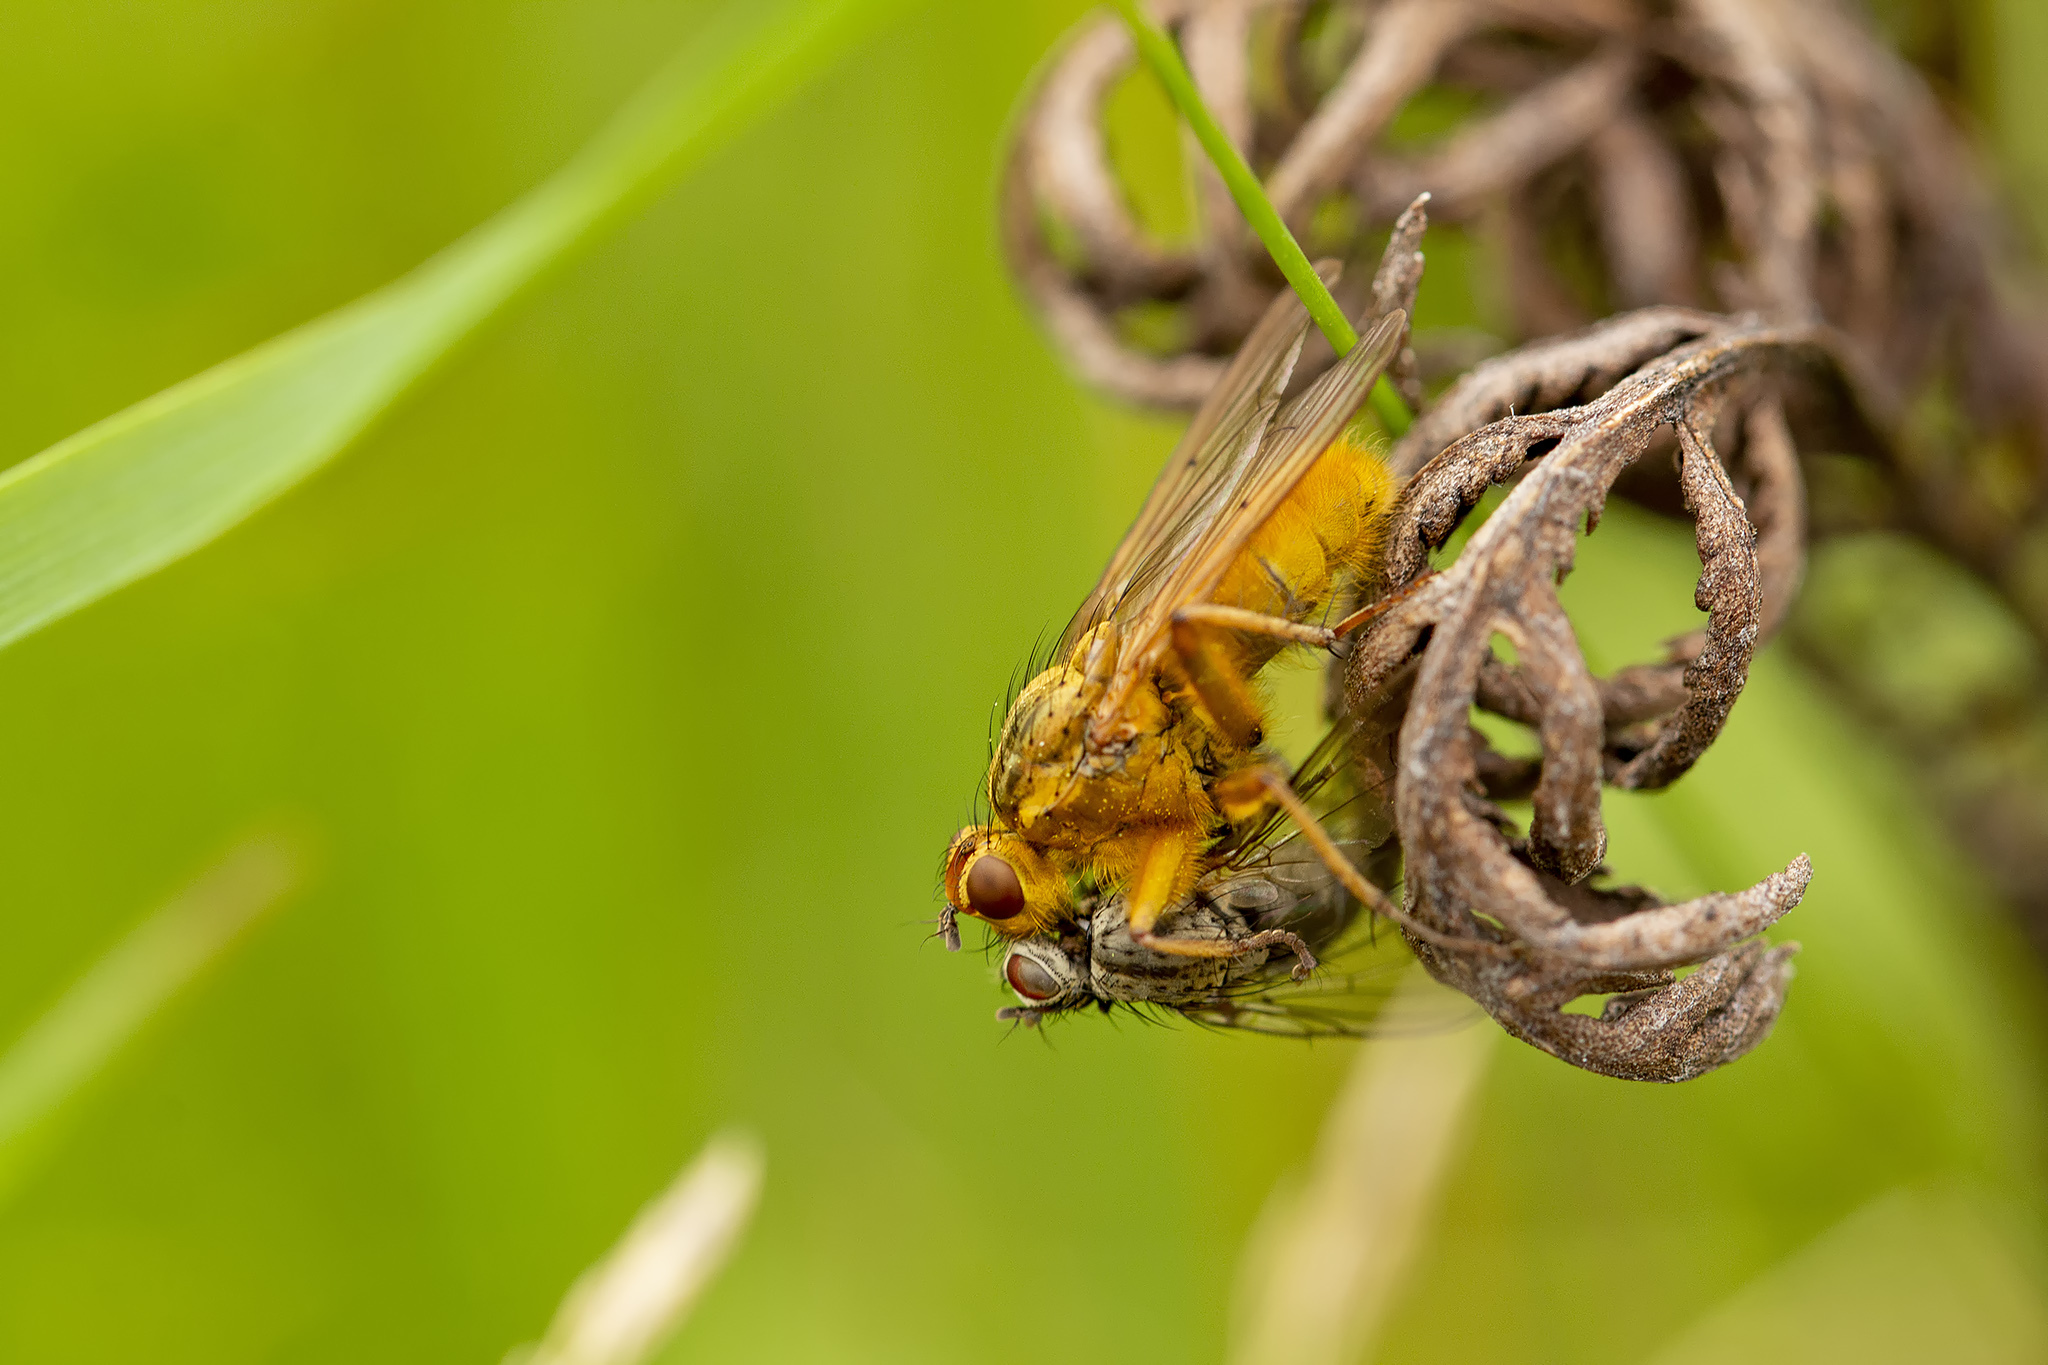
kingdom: Animalia
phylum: Arthropoda
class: Insecta
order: Diptera
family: Scathophagidae
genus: Scathophaga
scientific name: Scathophaga stercoraria
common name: Yellow dung fly
